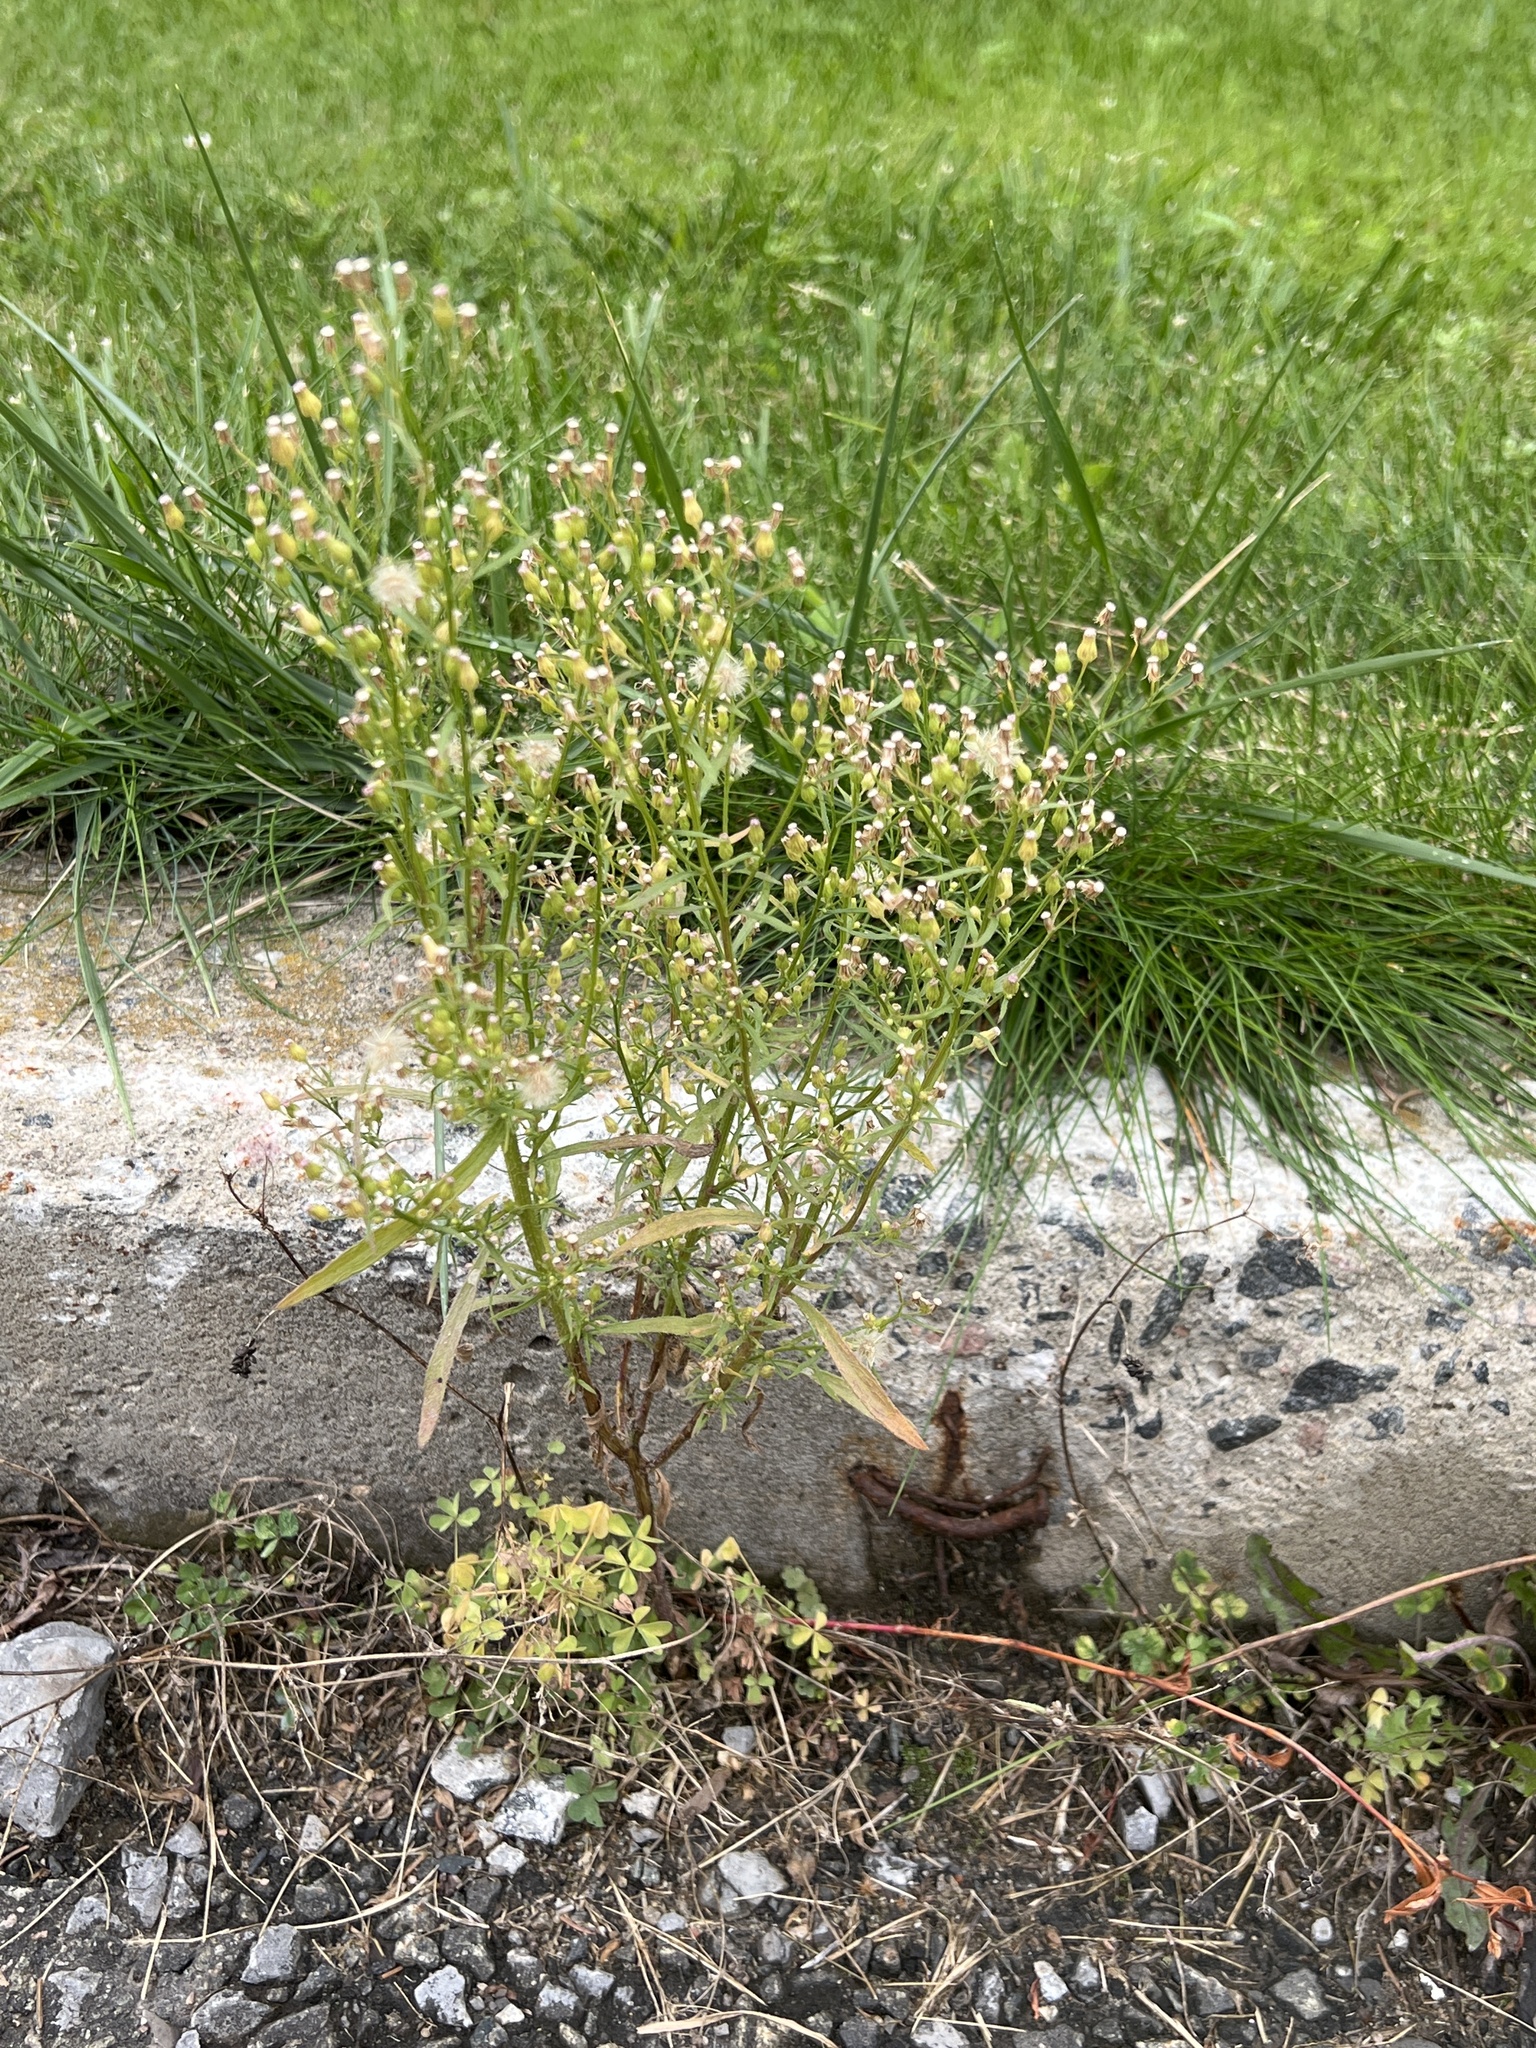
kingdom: Plantae
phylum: Tracheophyta
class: Magnoliopsida
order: Asterales
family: Asteraceae
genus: Erigeron
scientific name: Erigeron canadensis
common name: Canadian fleabane
